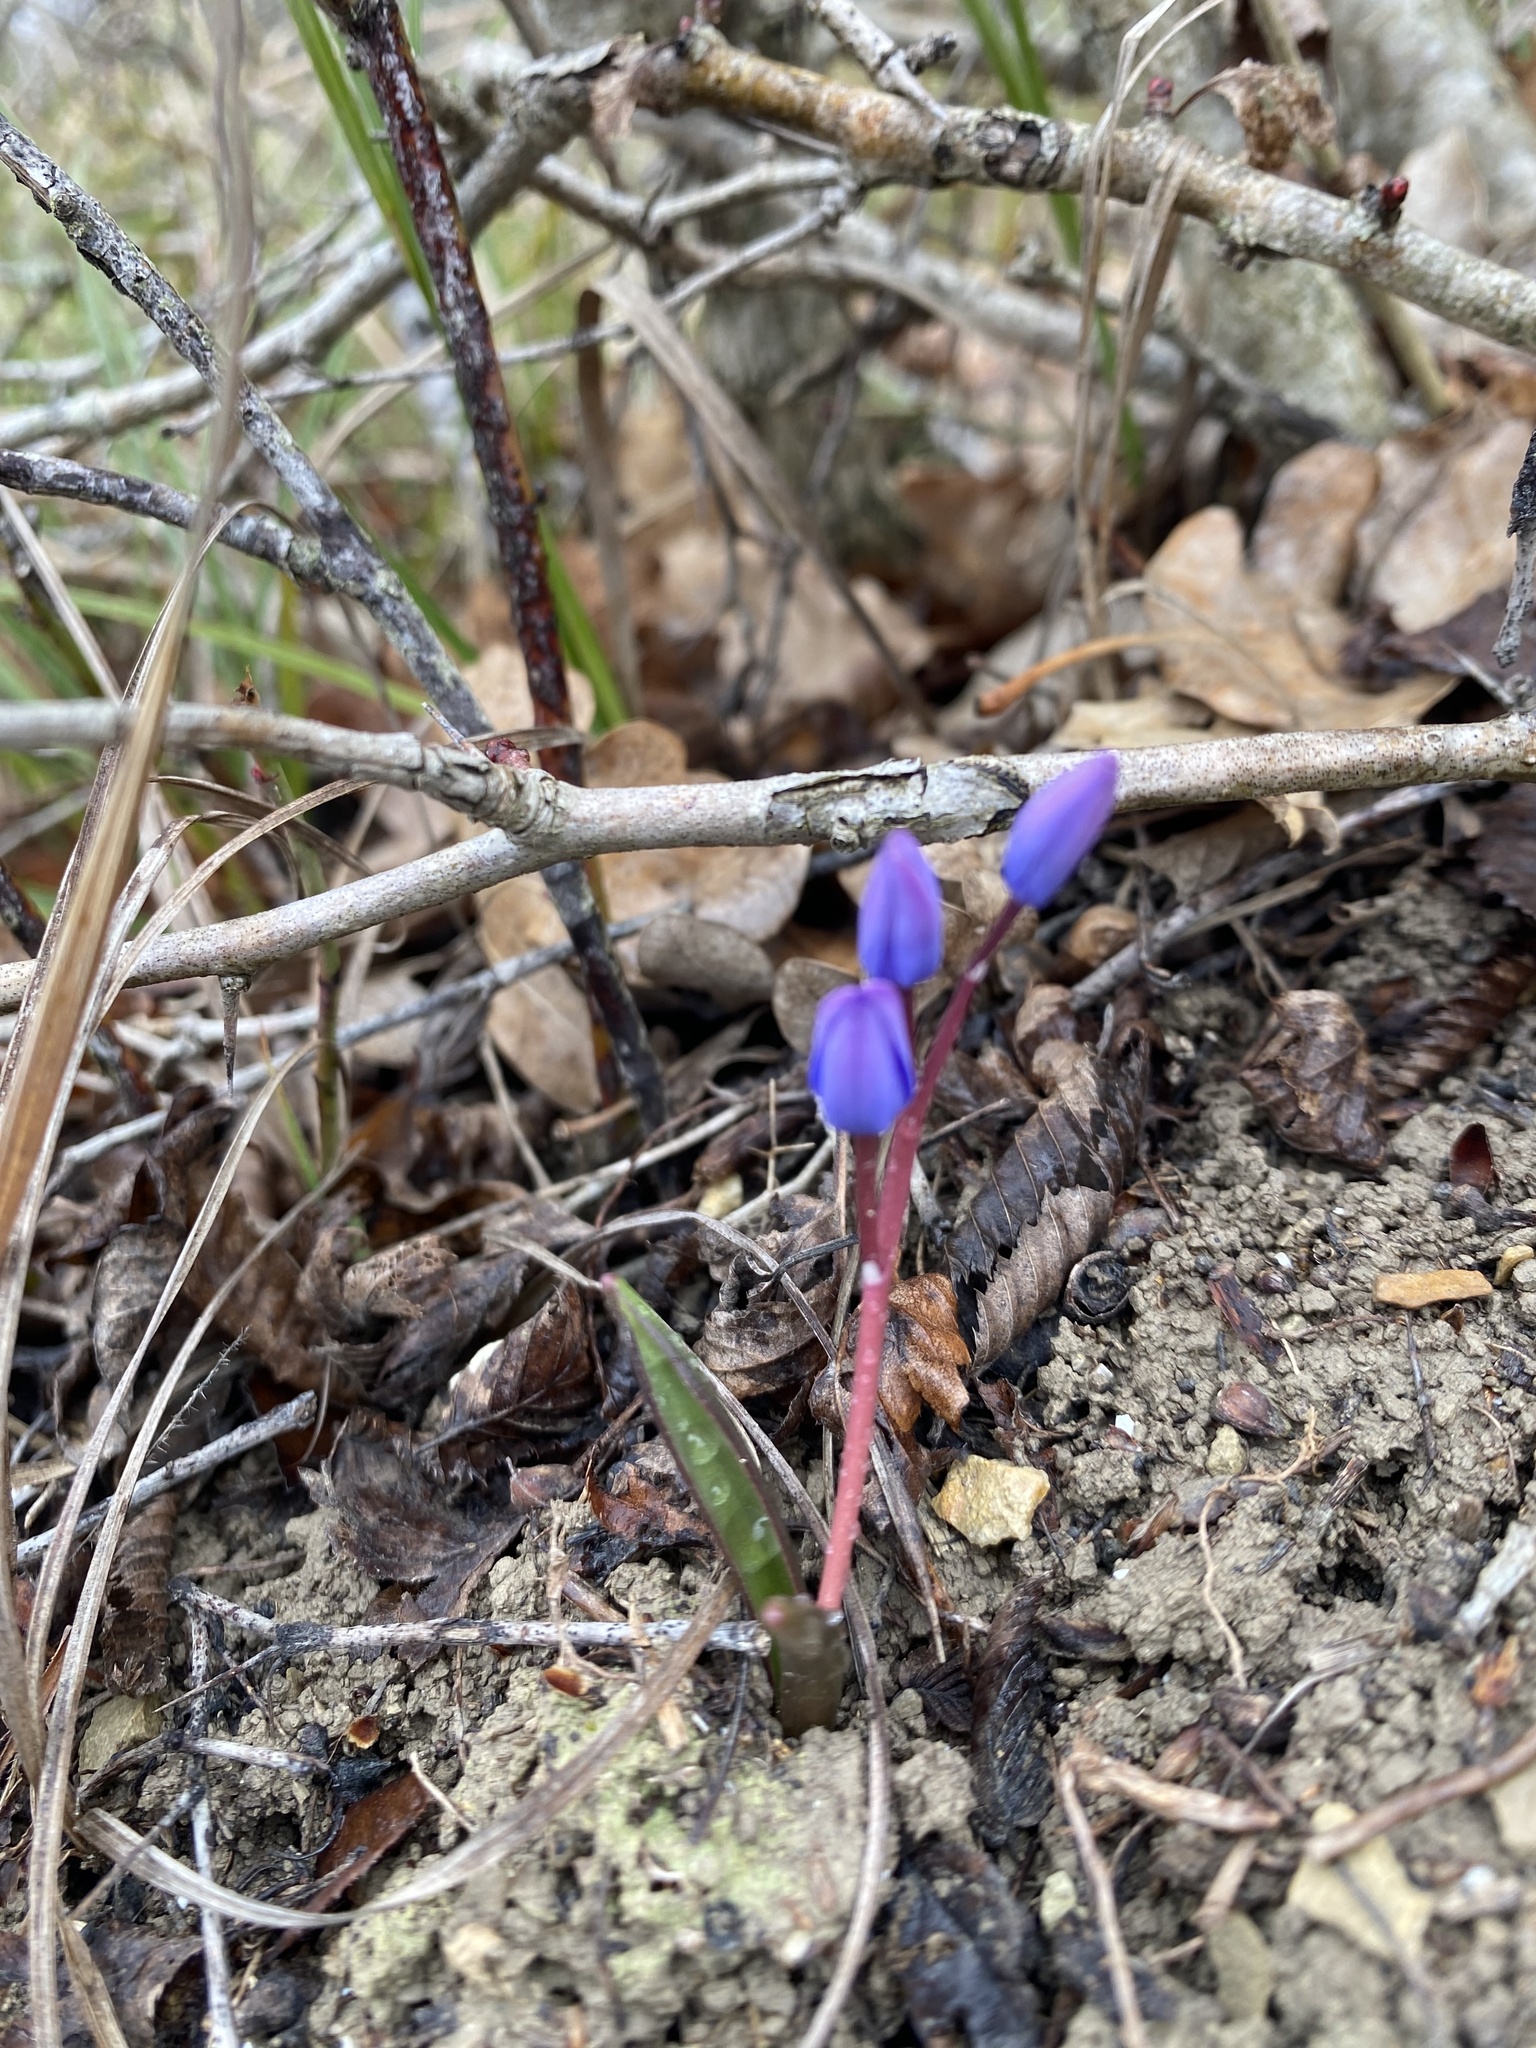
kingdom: Plantae
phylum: Tracheophyta
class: Liliopsida
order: Asparagales
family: Asparagaceae
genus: Scilla
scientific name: Scilla bifolia
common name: Alpine squill
